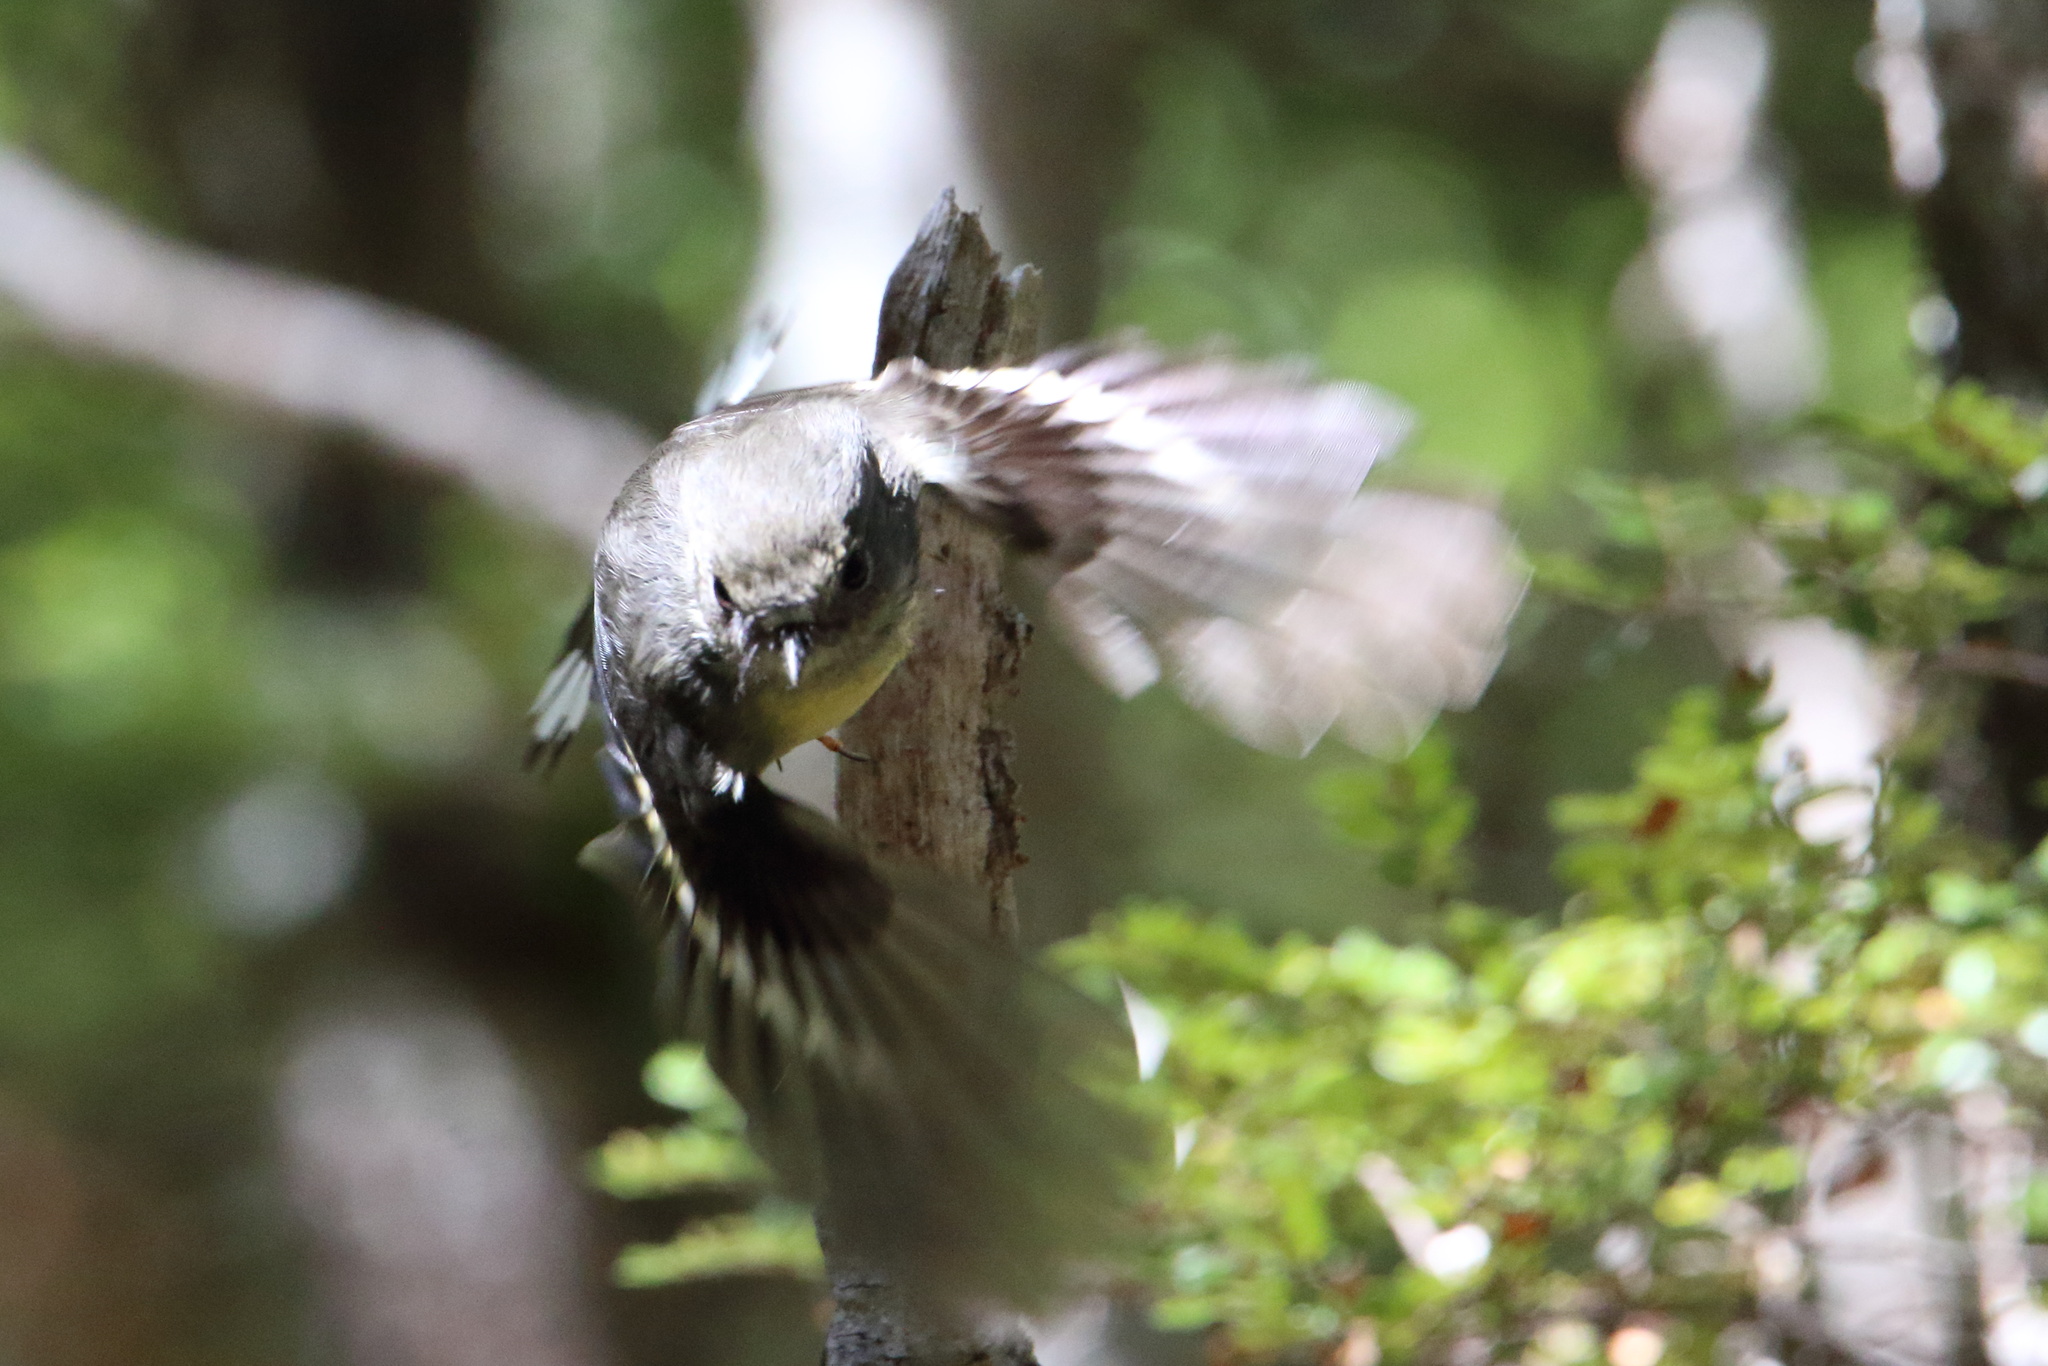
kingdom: Animalia
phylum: Chordata
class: Aves
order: Passeriformes
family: Petroicidae
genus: Petroica
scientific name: Petroica australis
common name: New zealand robin
